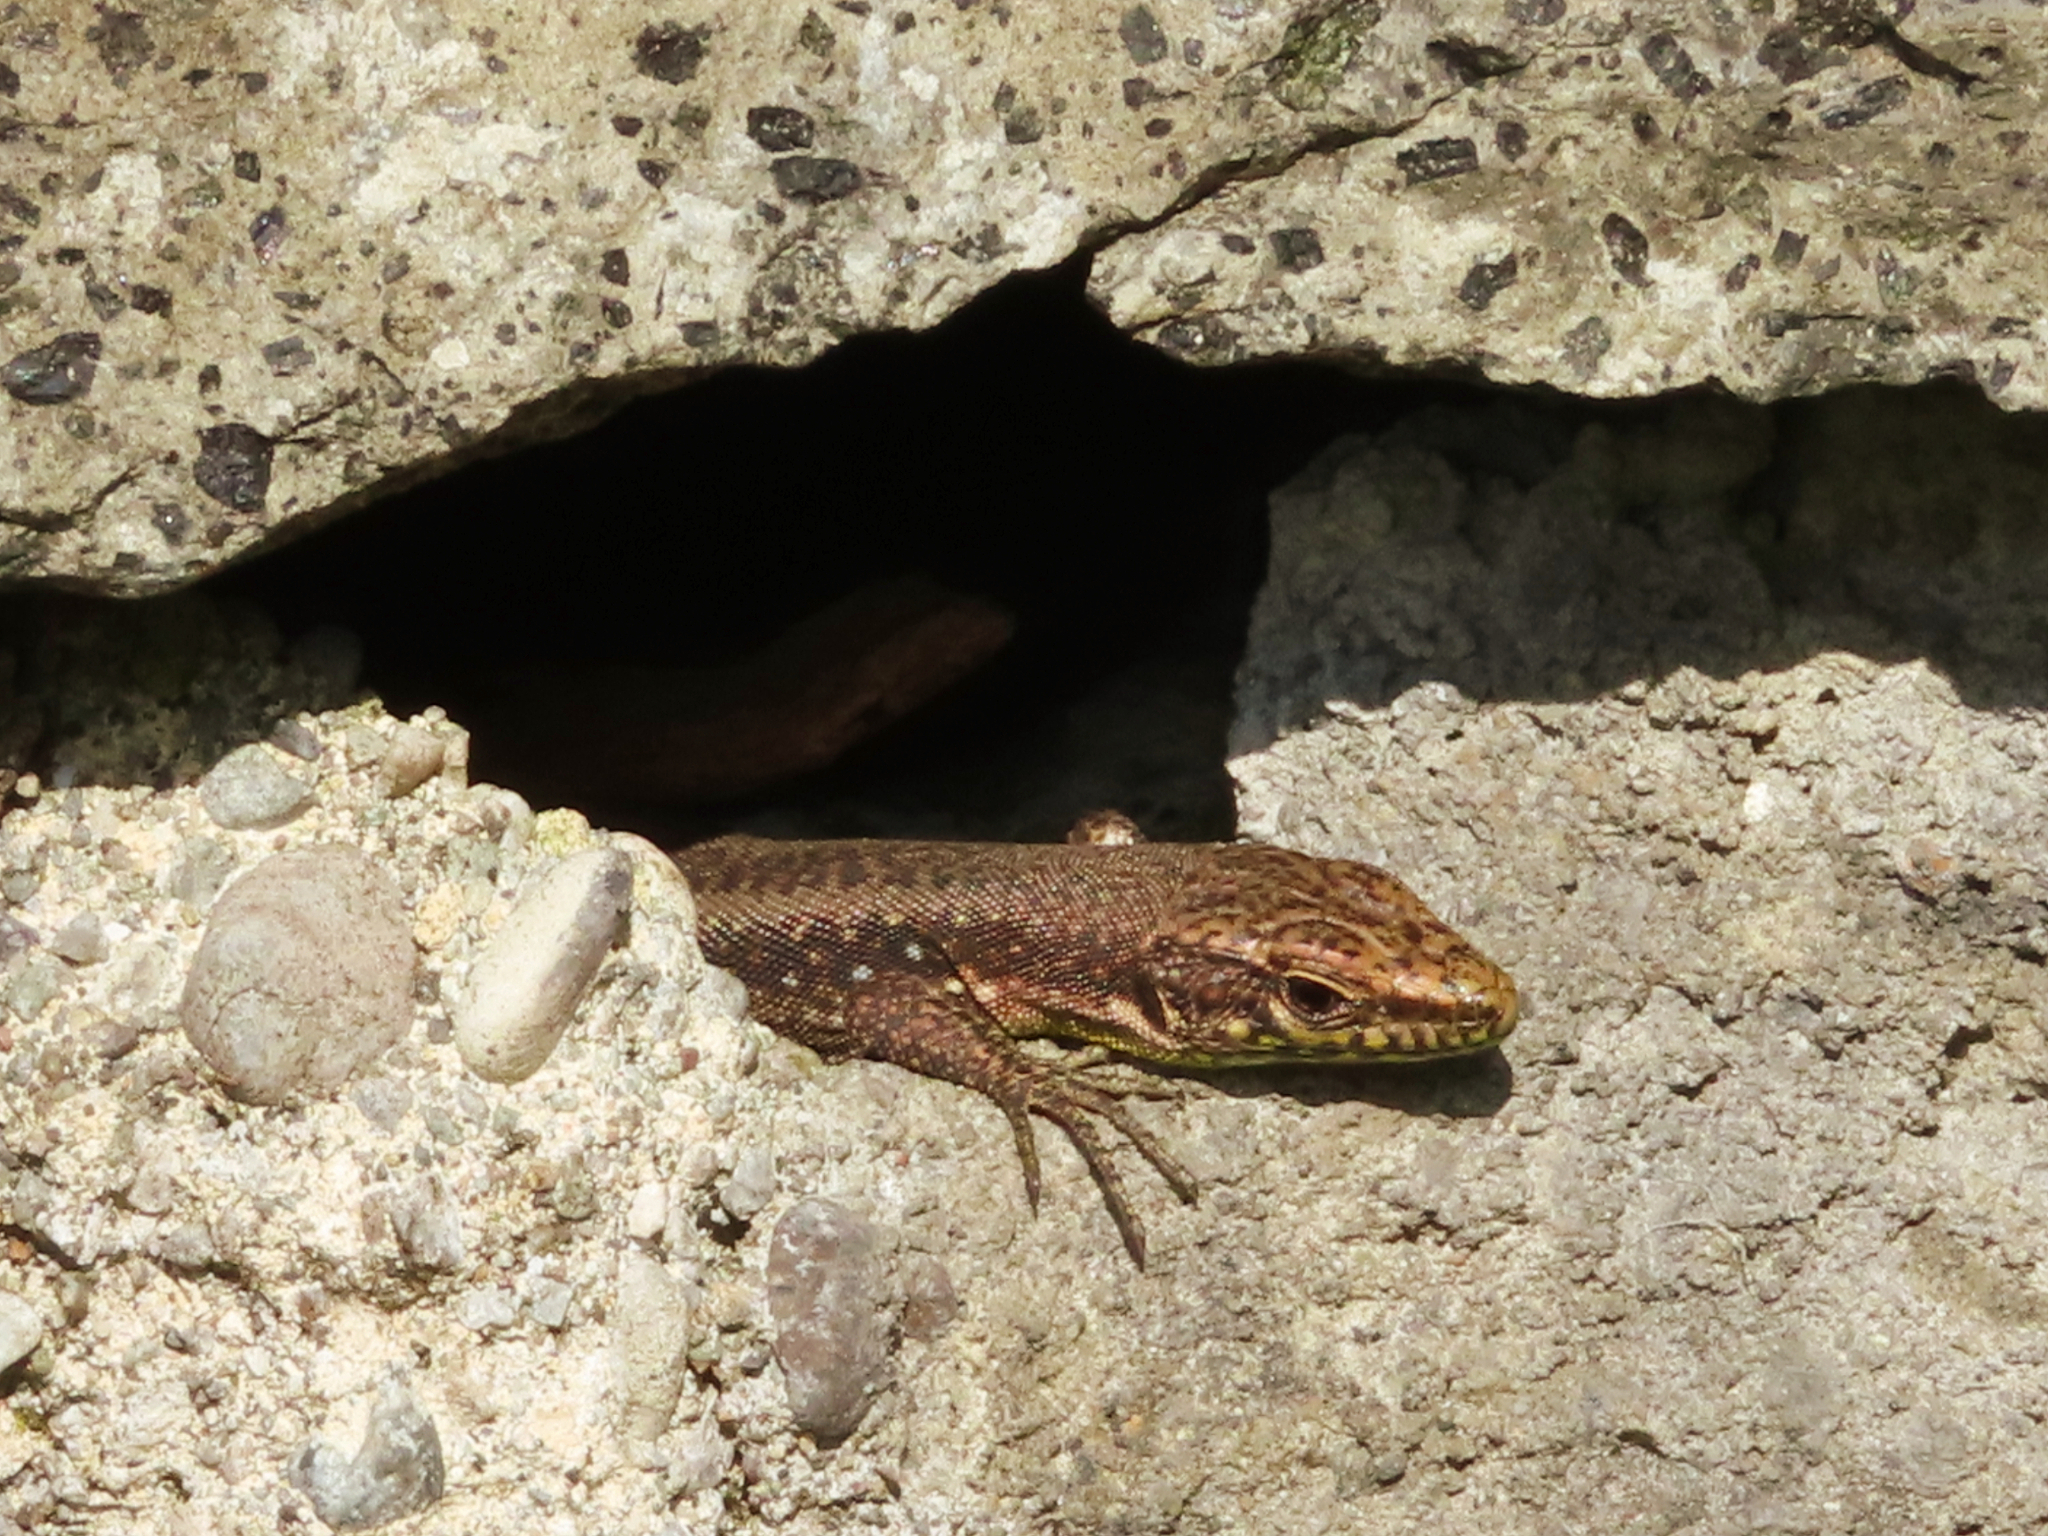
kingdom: Animalia
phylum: Chordata
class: Squamata
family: Lacertidae
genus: Darevskia
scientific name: Darevskia rudis
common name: Spiny-tailed lizard
